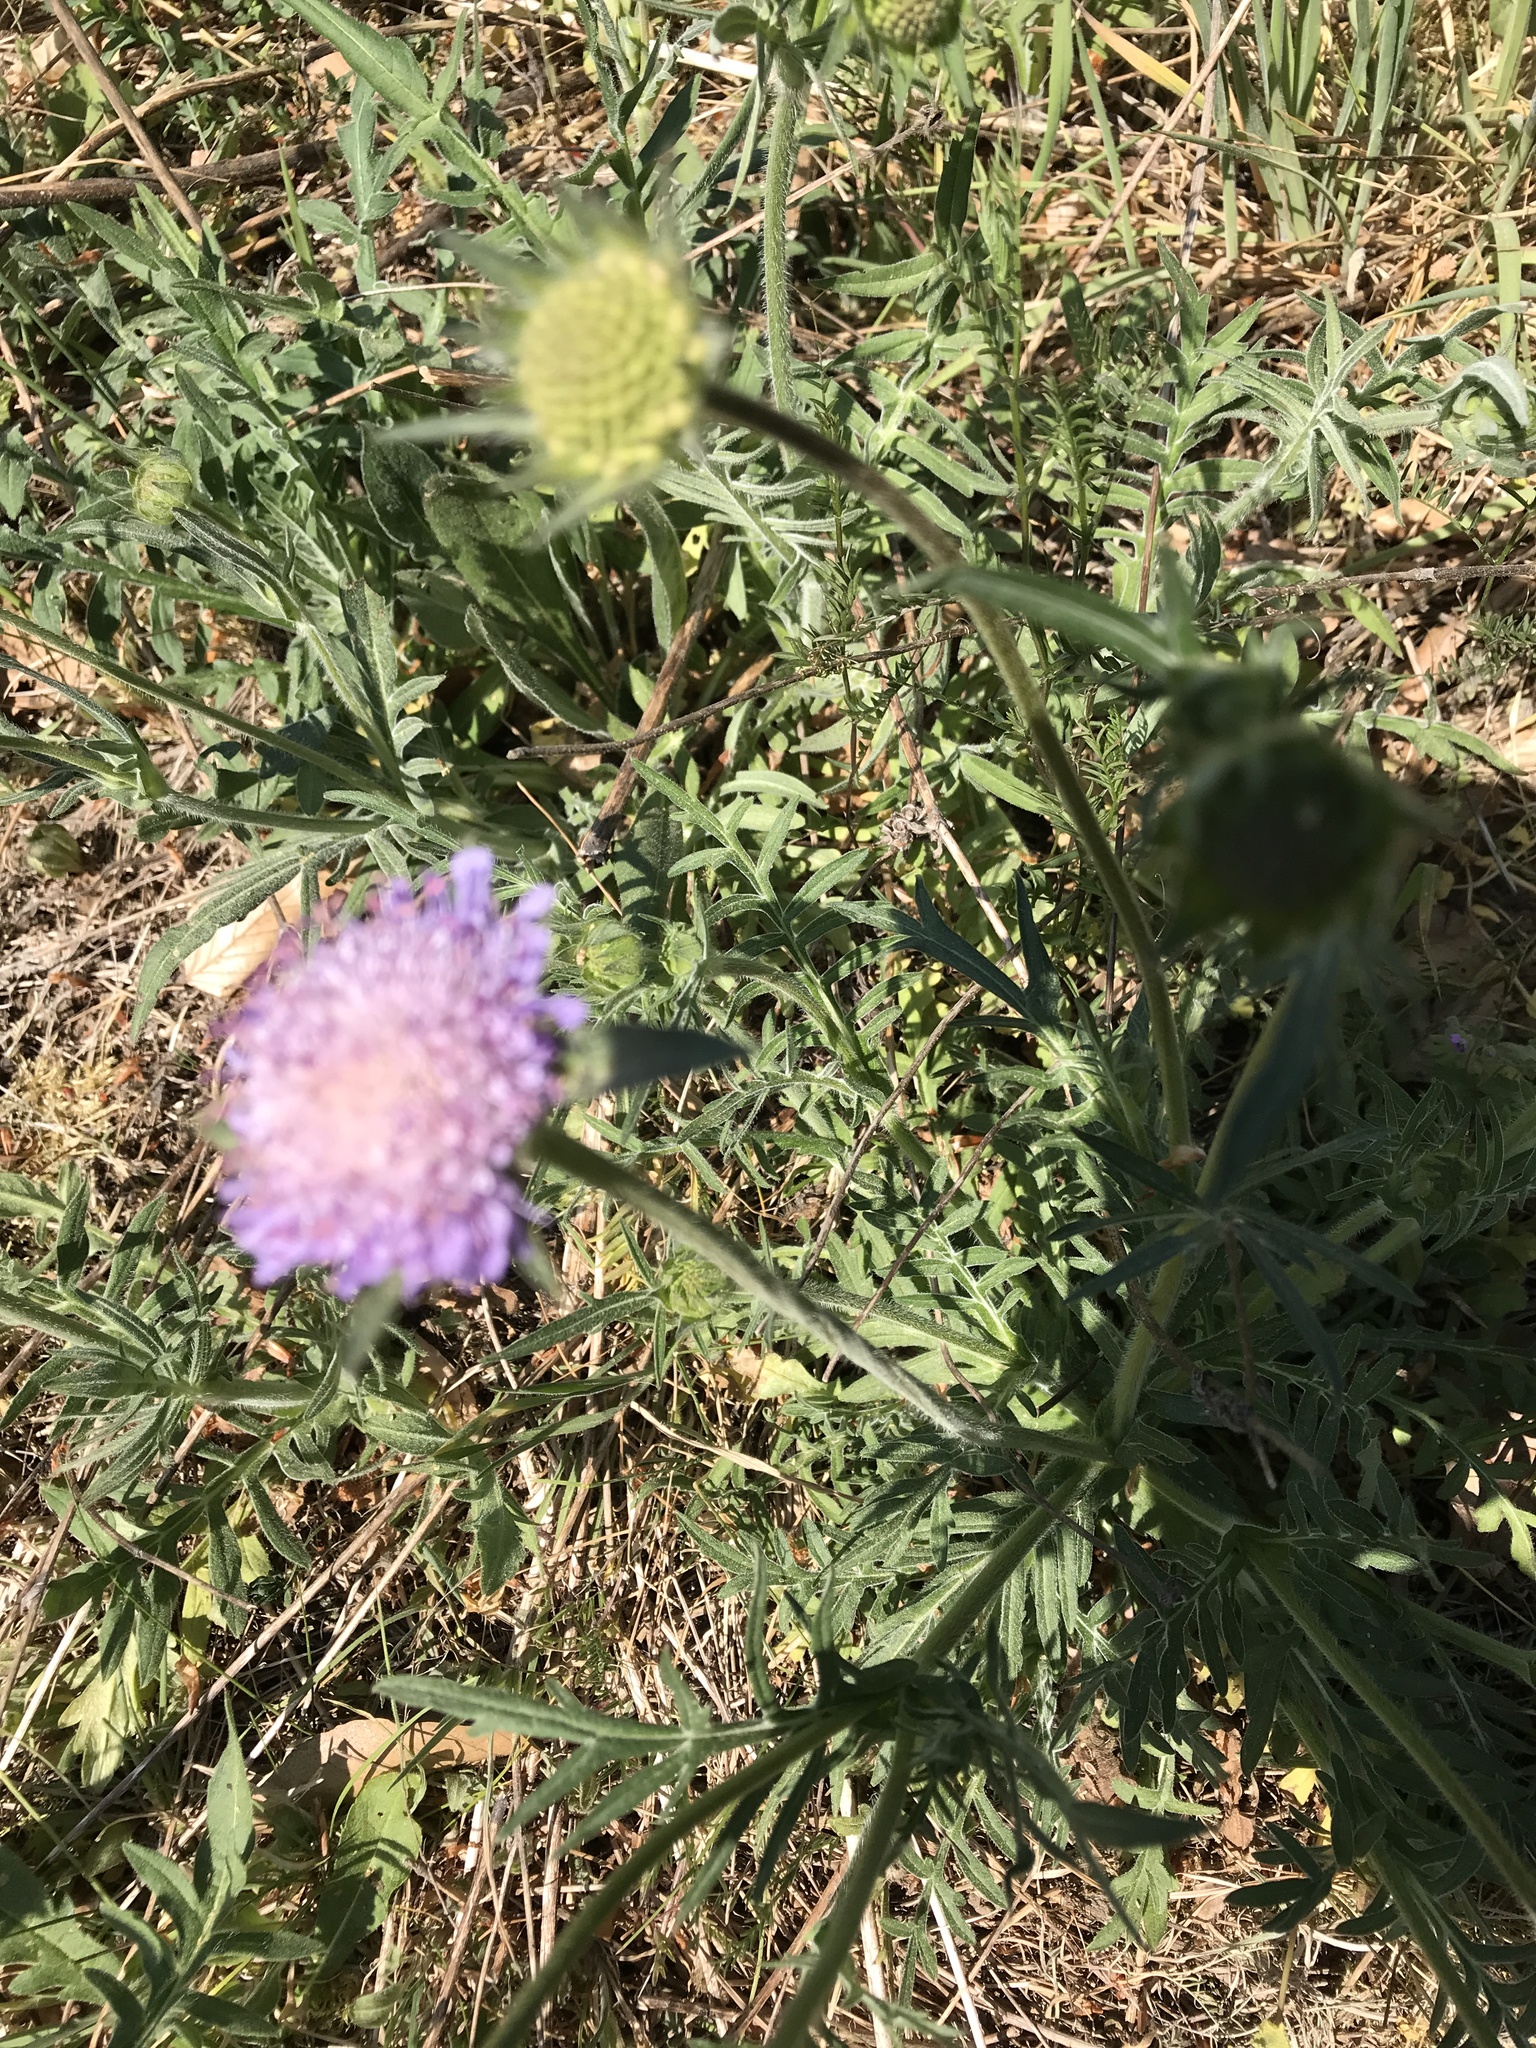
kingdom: Plantae
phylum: Tracheophyta
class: Magnoliopsida
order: Dipsacales
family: Caprifoliaceae
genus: Knautia
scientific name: Knautia arvensis
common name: Field scabiosa
